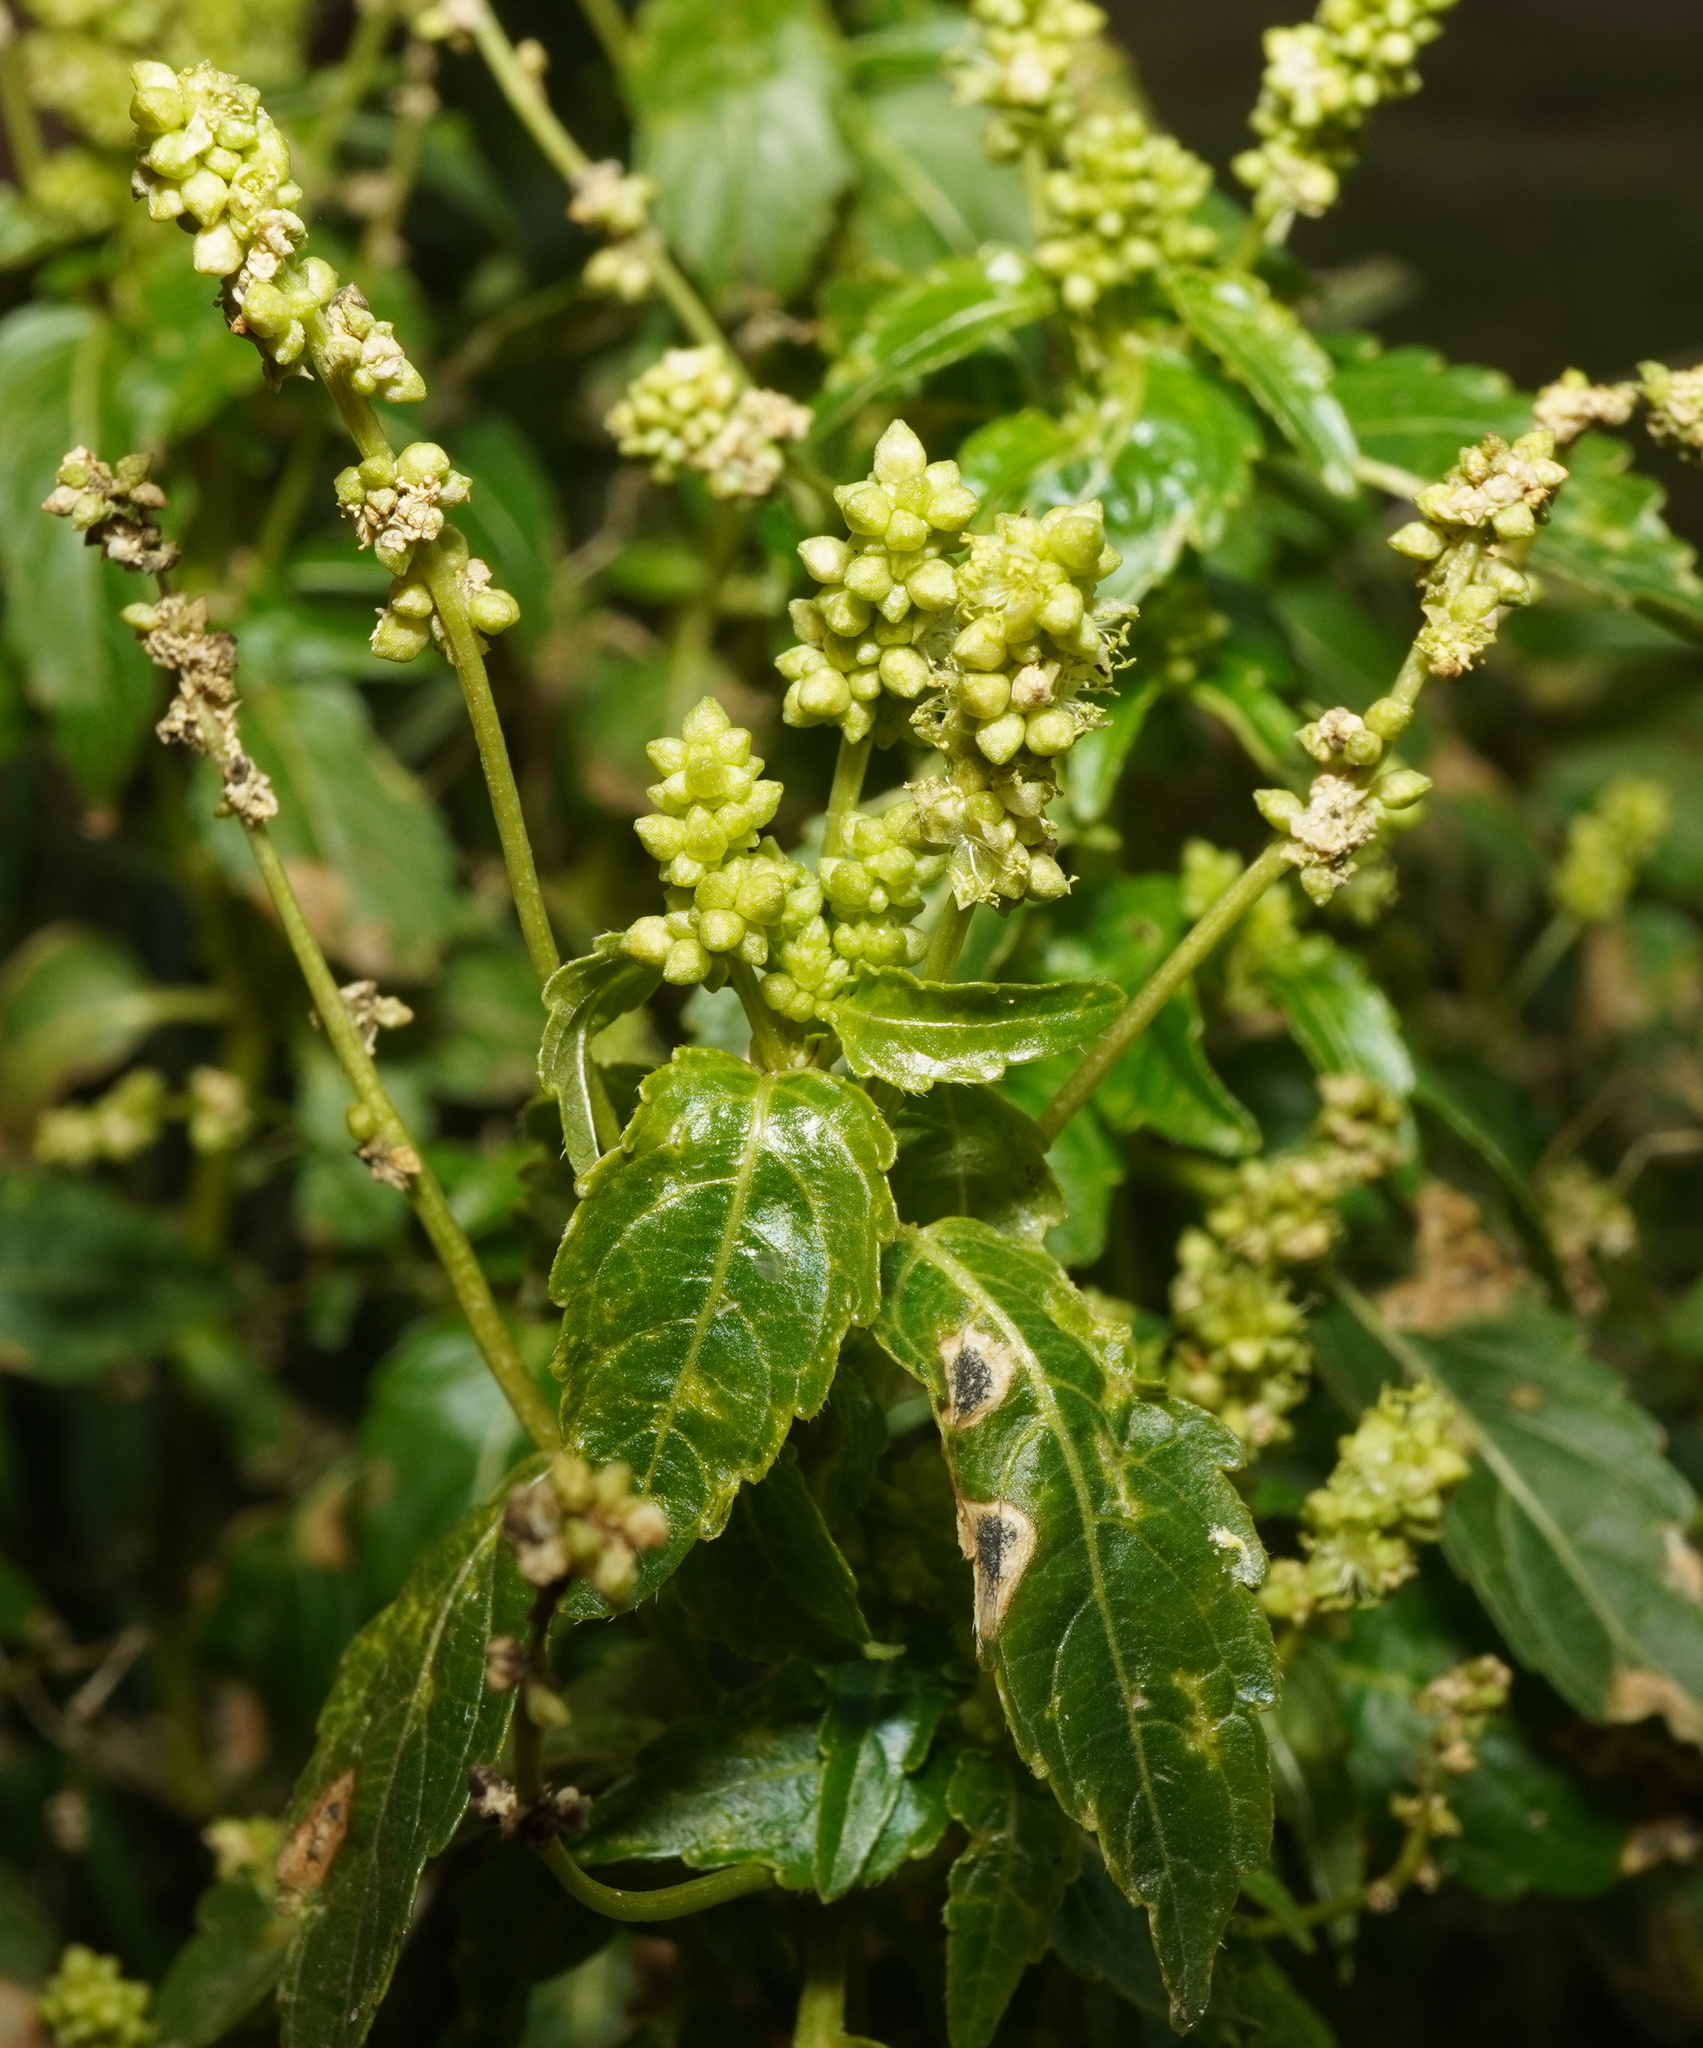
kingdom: Plantae
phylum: Tracheophyta
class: Magnoliopsida
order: Malpighiales
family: Euphorbiaceae
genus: Mercurialis
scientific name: Mercurialis annua
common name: Annual mercury
